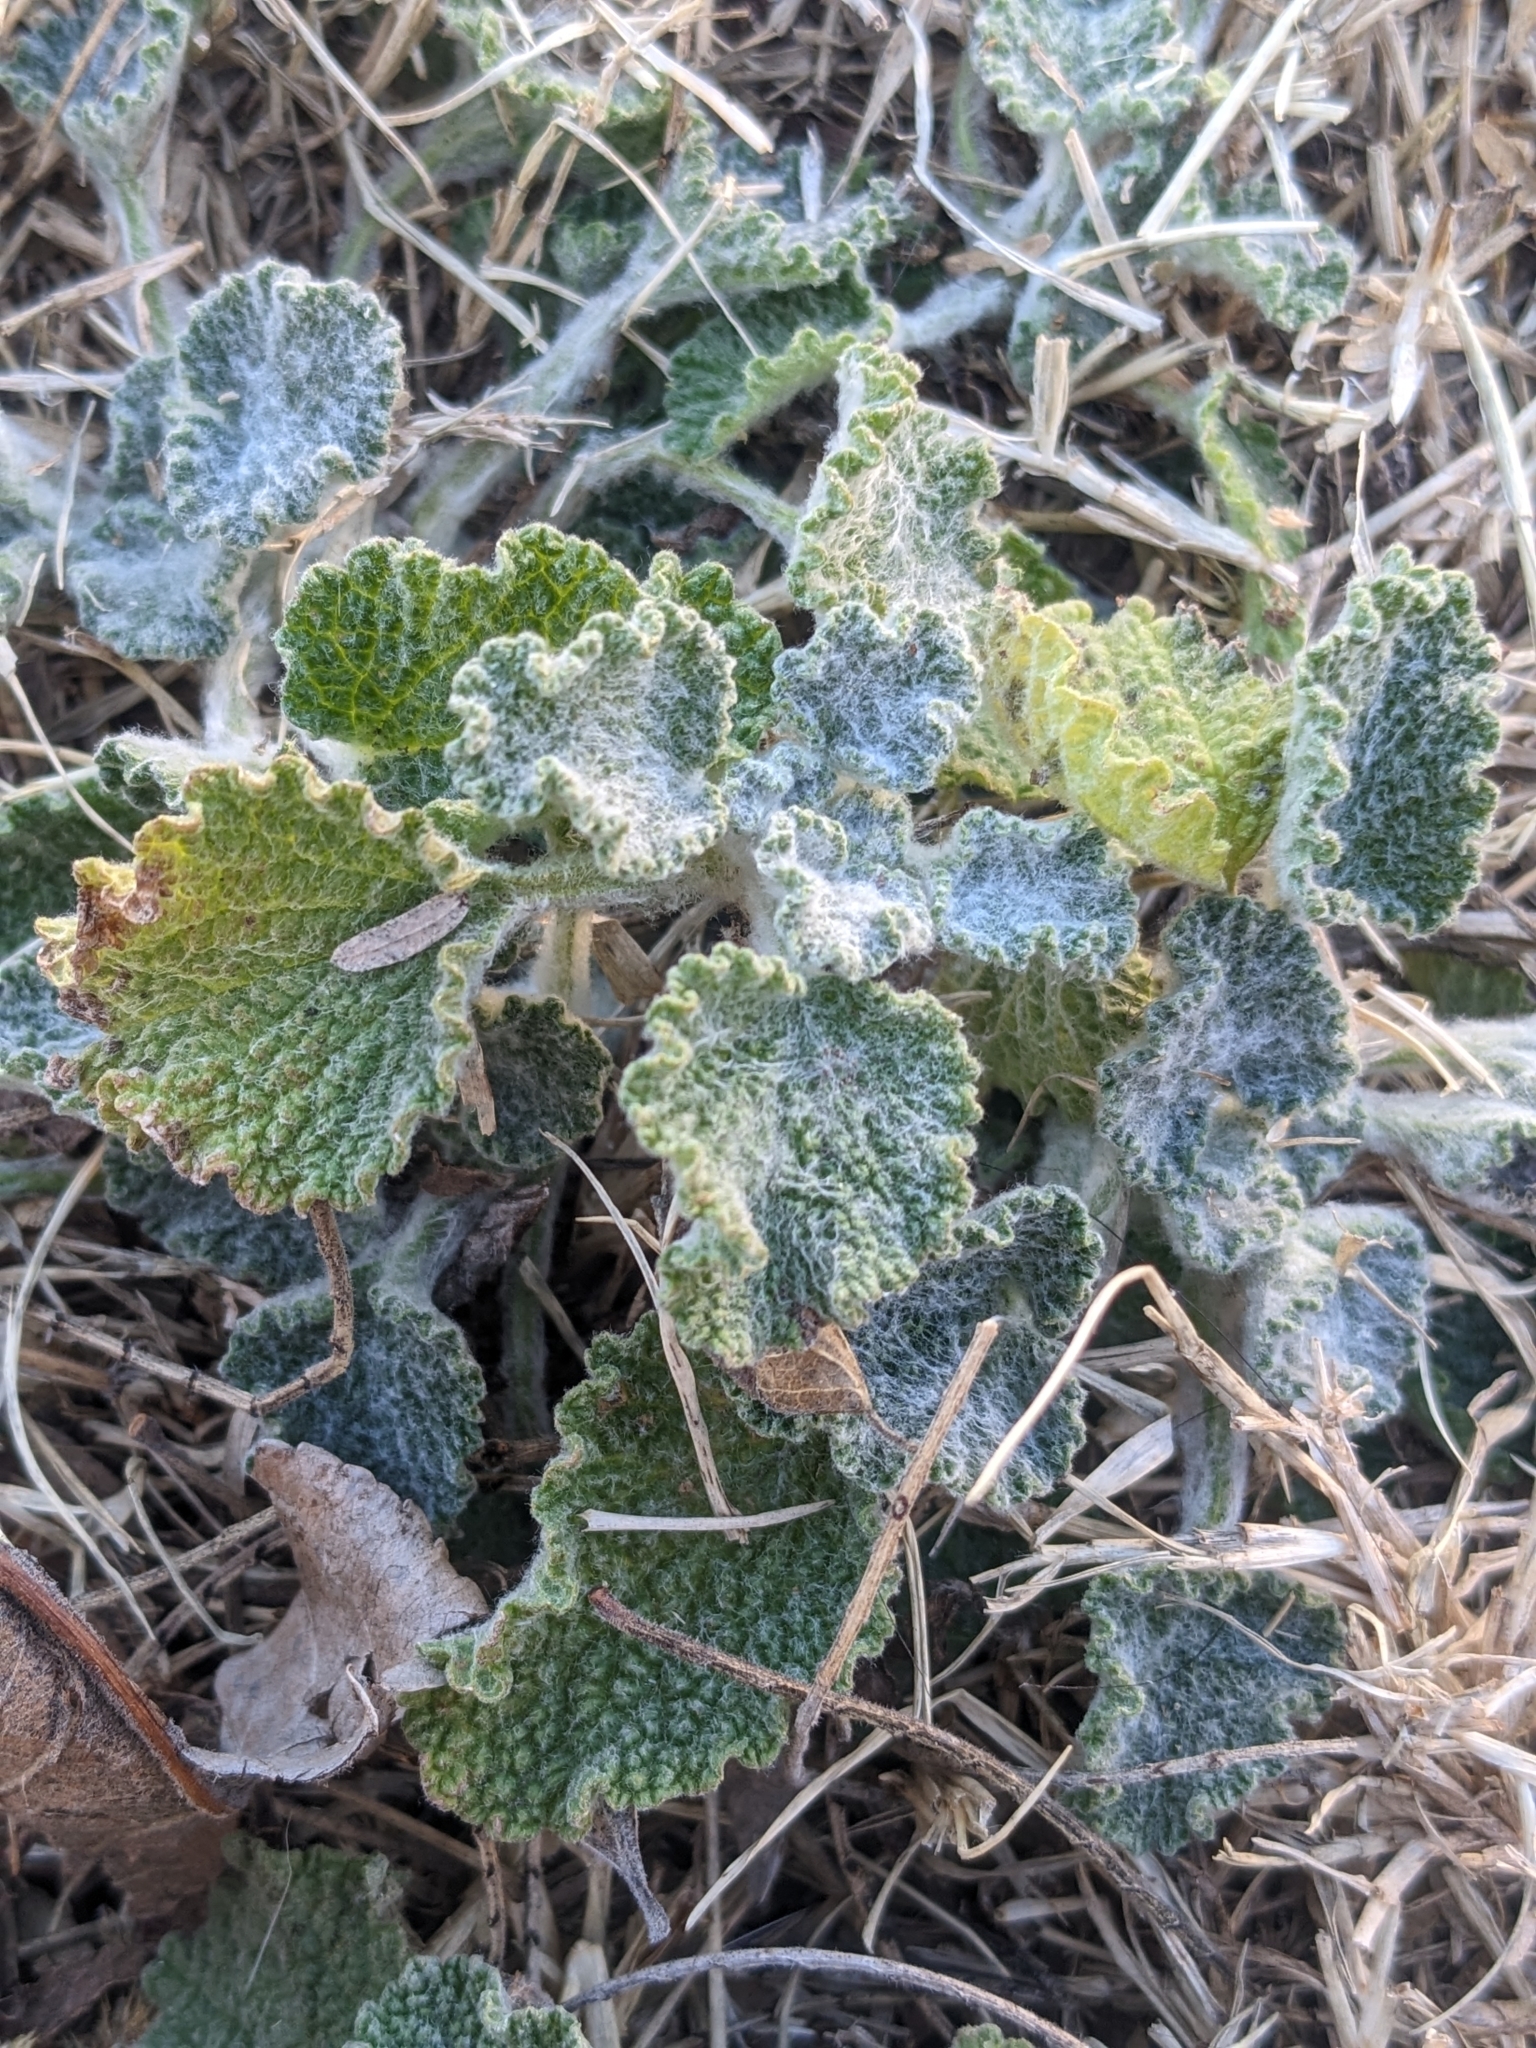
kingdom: Plantae
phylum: Tracheophyta
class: Magnoliopsida
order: Lamiales
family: Lamiaceae
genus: Marrubium
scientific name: Marrubium vulgare
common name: Horehound
